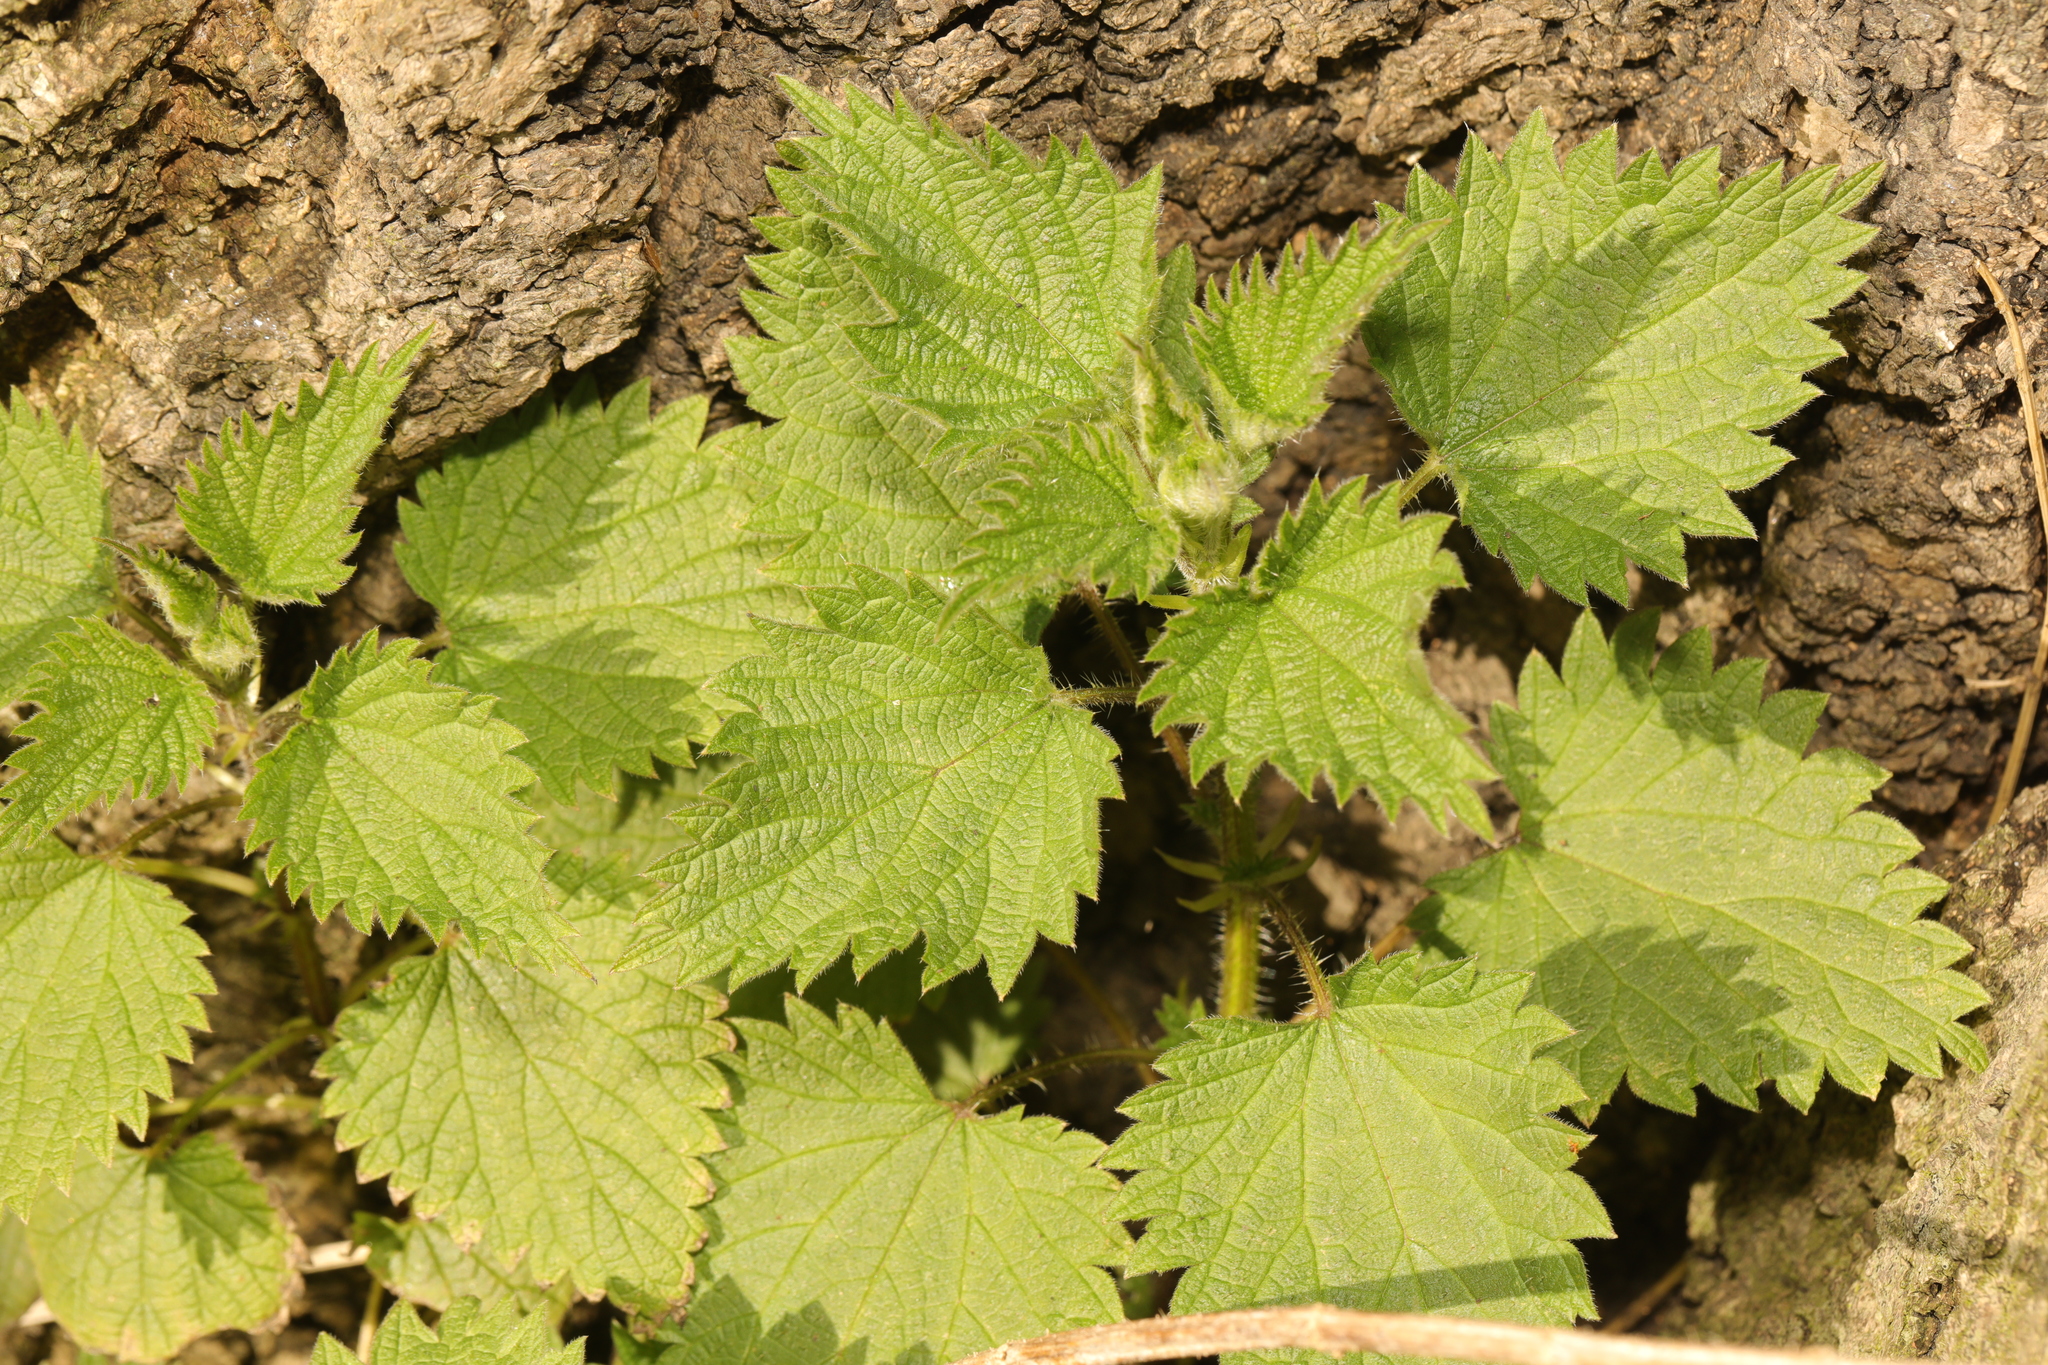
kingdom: Plantae
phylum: Tracheophyta
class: Magnoliopsida
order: Rosales
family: Urticaceae
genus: Urtica
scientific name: Urtica dioica
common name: Common nettle
